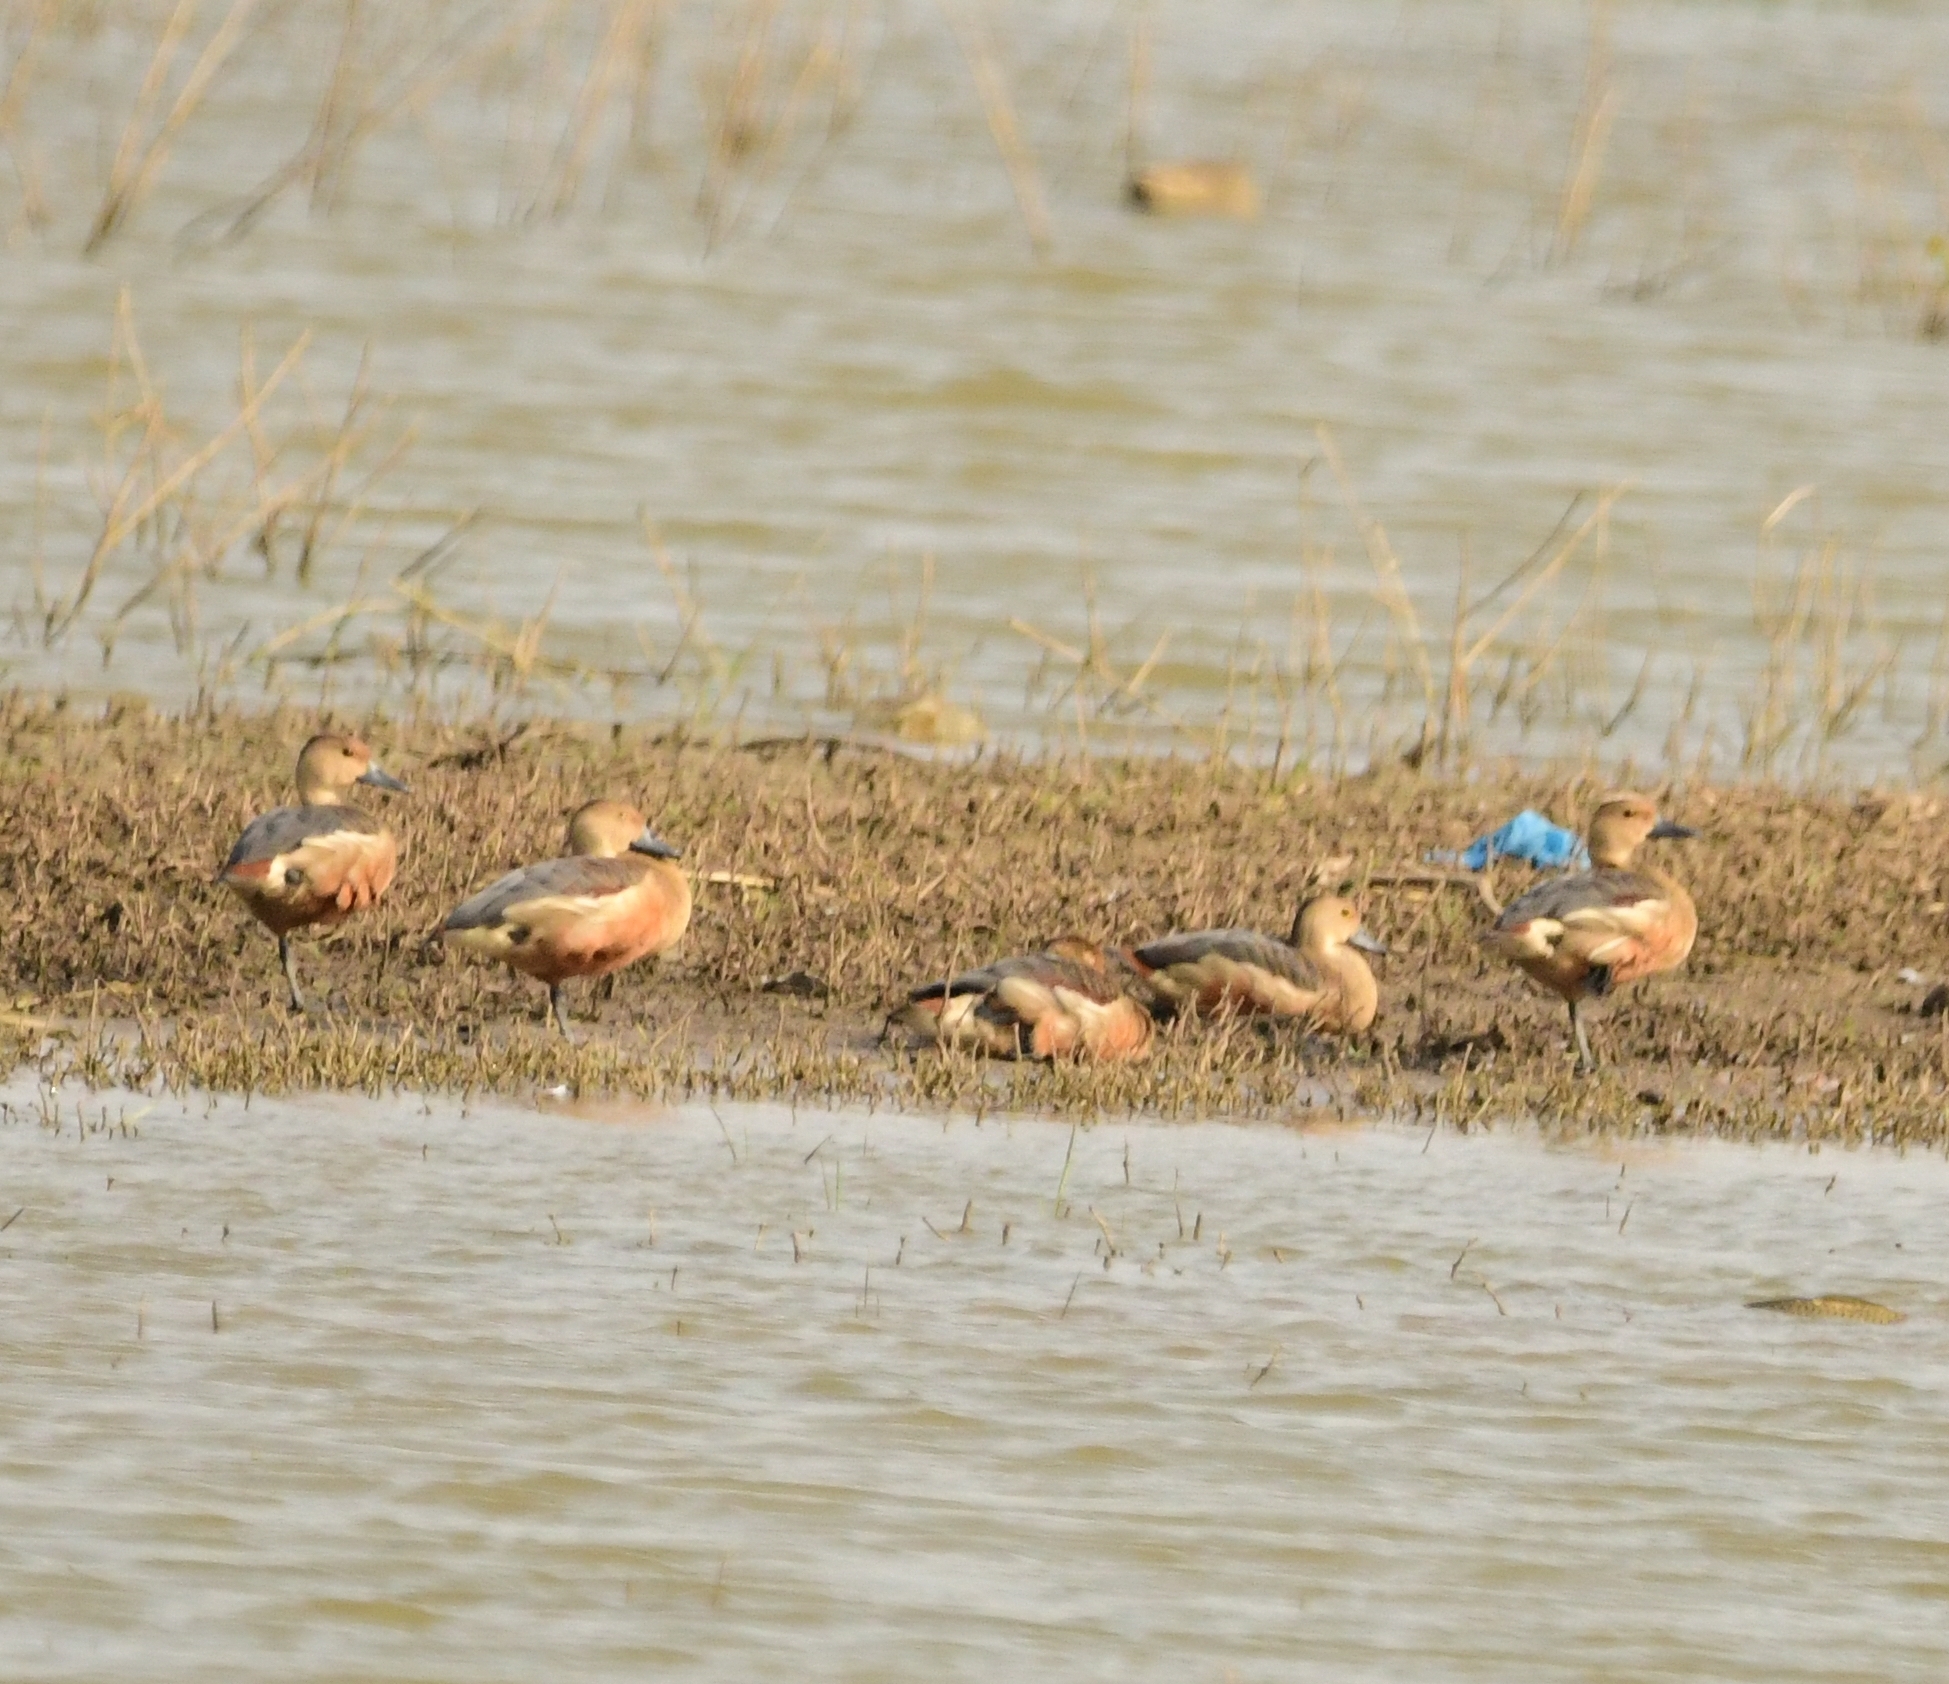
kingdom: Animalia
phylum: Chordata
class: Aves
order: Anseriformes
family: Anatidae
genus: Dendrocygna
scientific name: Dendrocygna javanica
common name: Lesser whistling-duck
